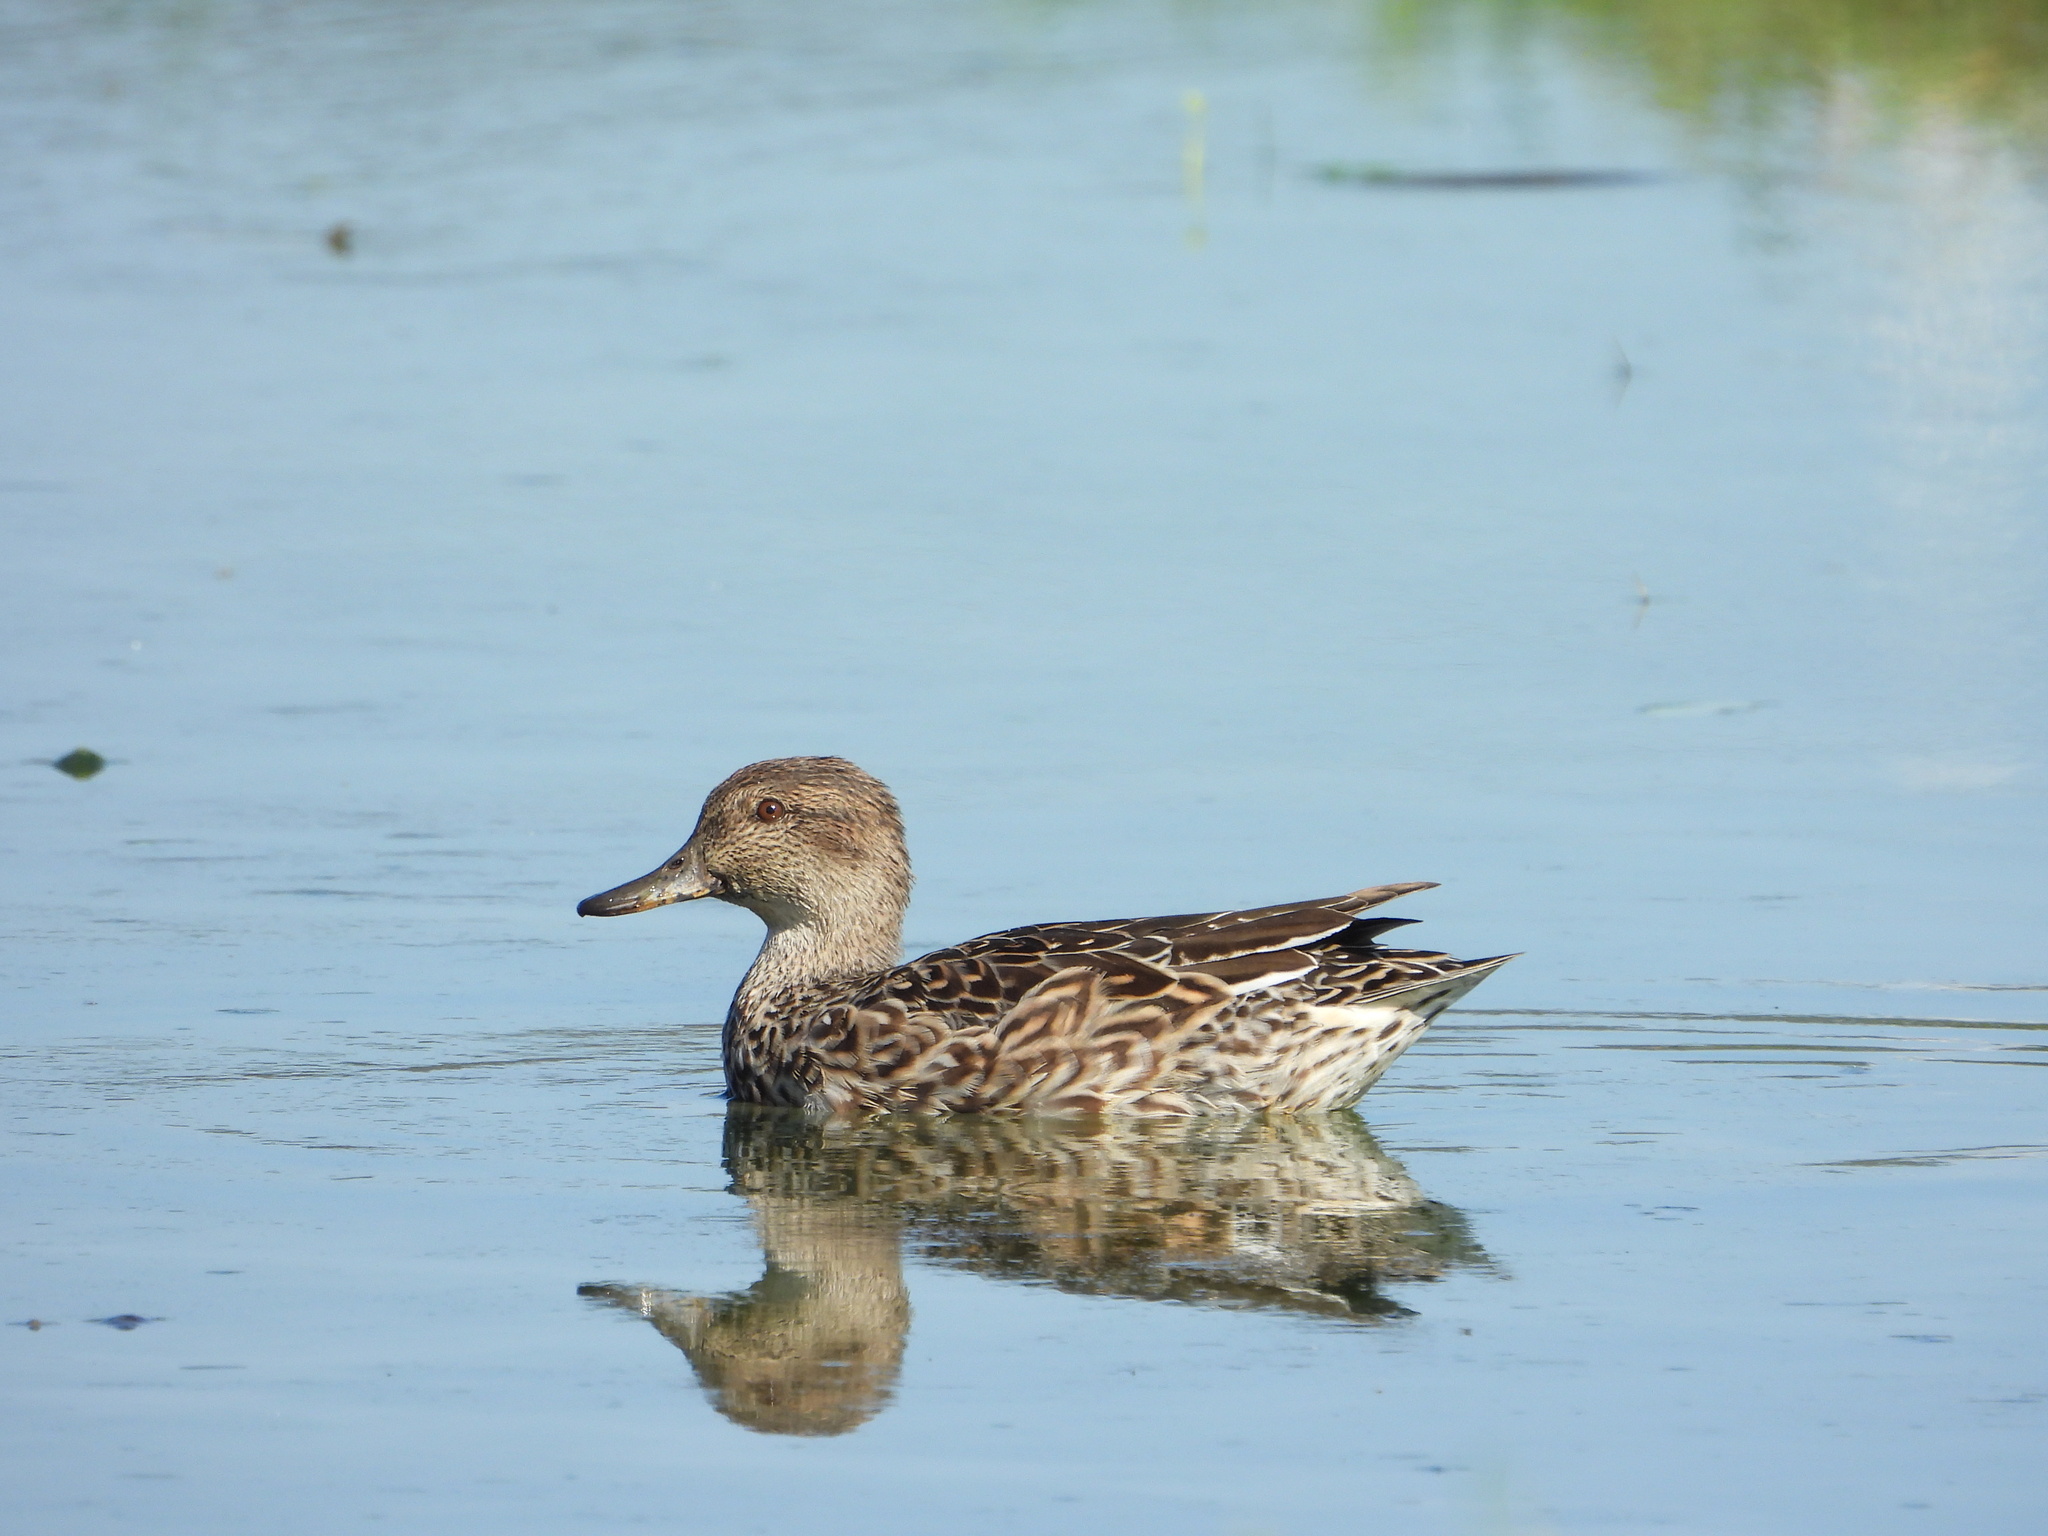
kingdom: Animalia
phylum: Chordata
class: Aves
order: Anseriformes
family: Anatidae
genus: Anas
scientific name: Anas crecca
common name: Eurasian teal
